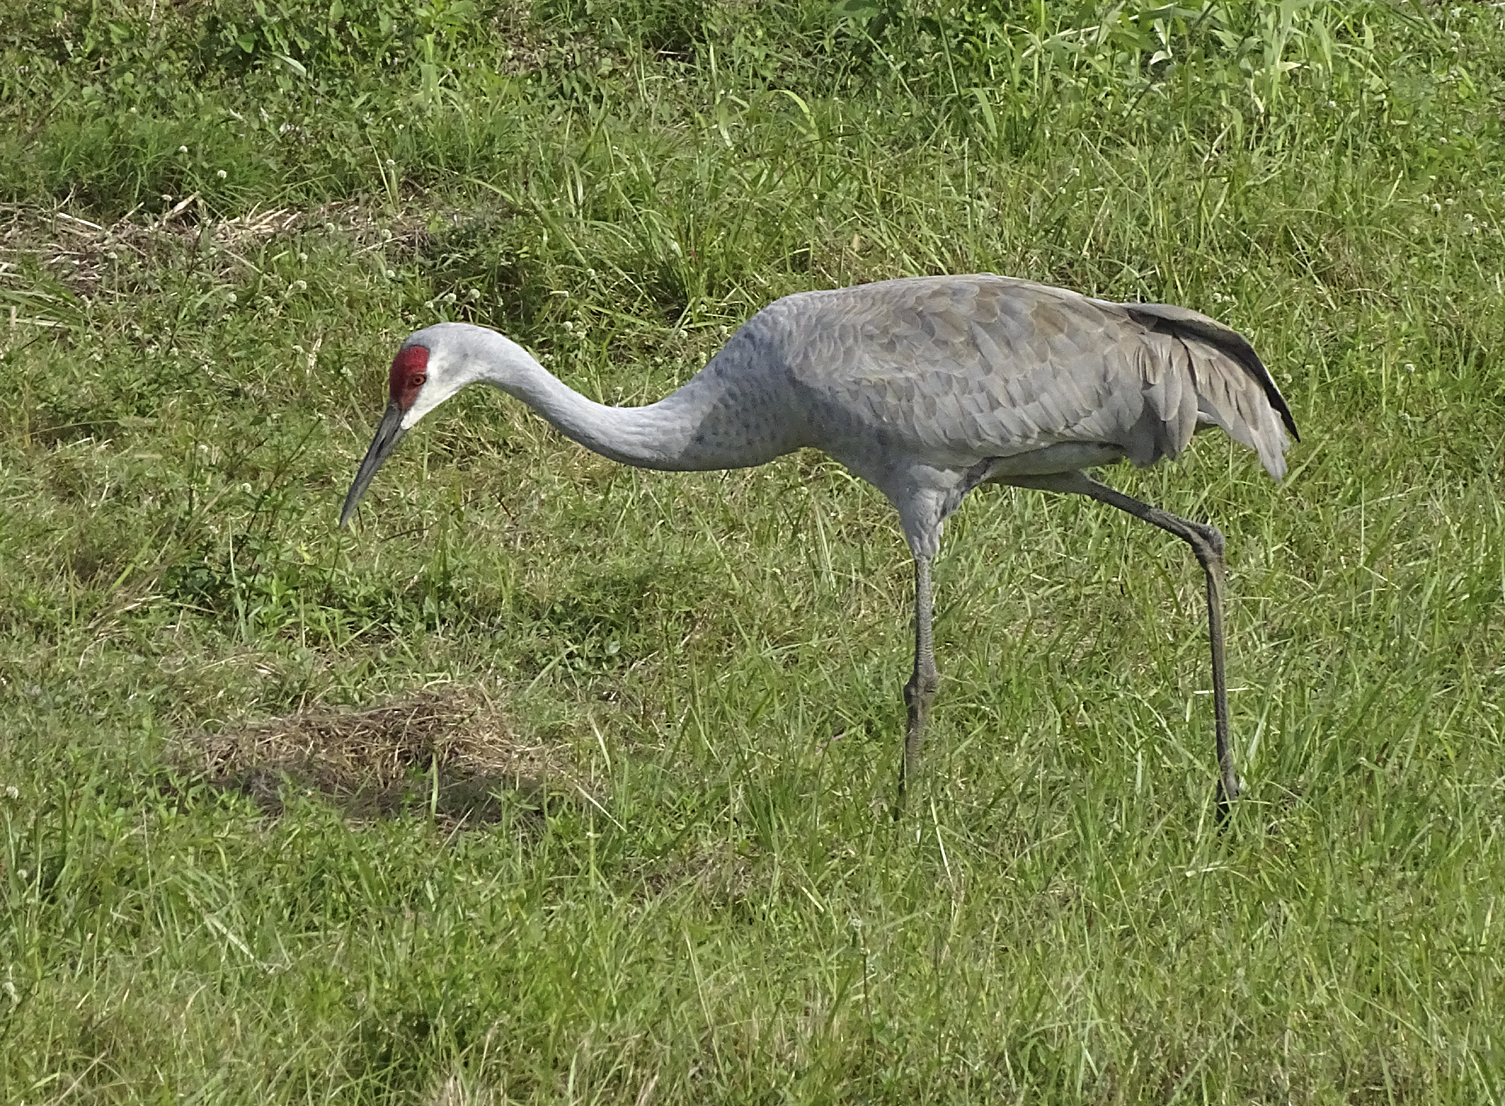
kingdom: Animalia
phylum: Chordata
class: Aves
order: Gruiformes
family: Gruidae
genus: Grus
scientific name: Grus canadensis
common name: Sandhill crane
